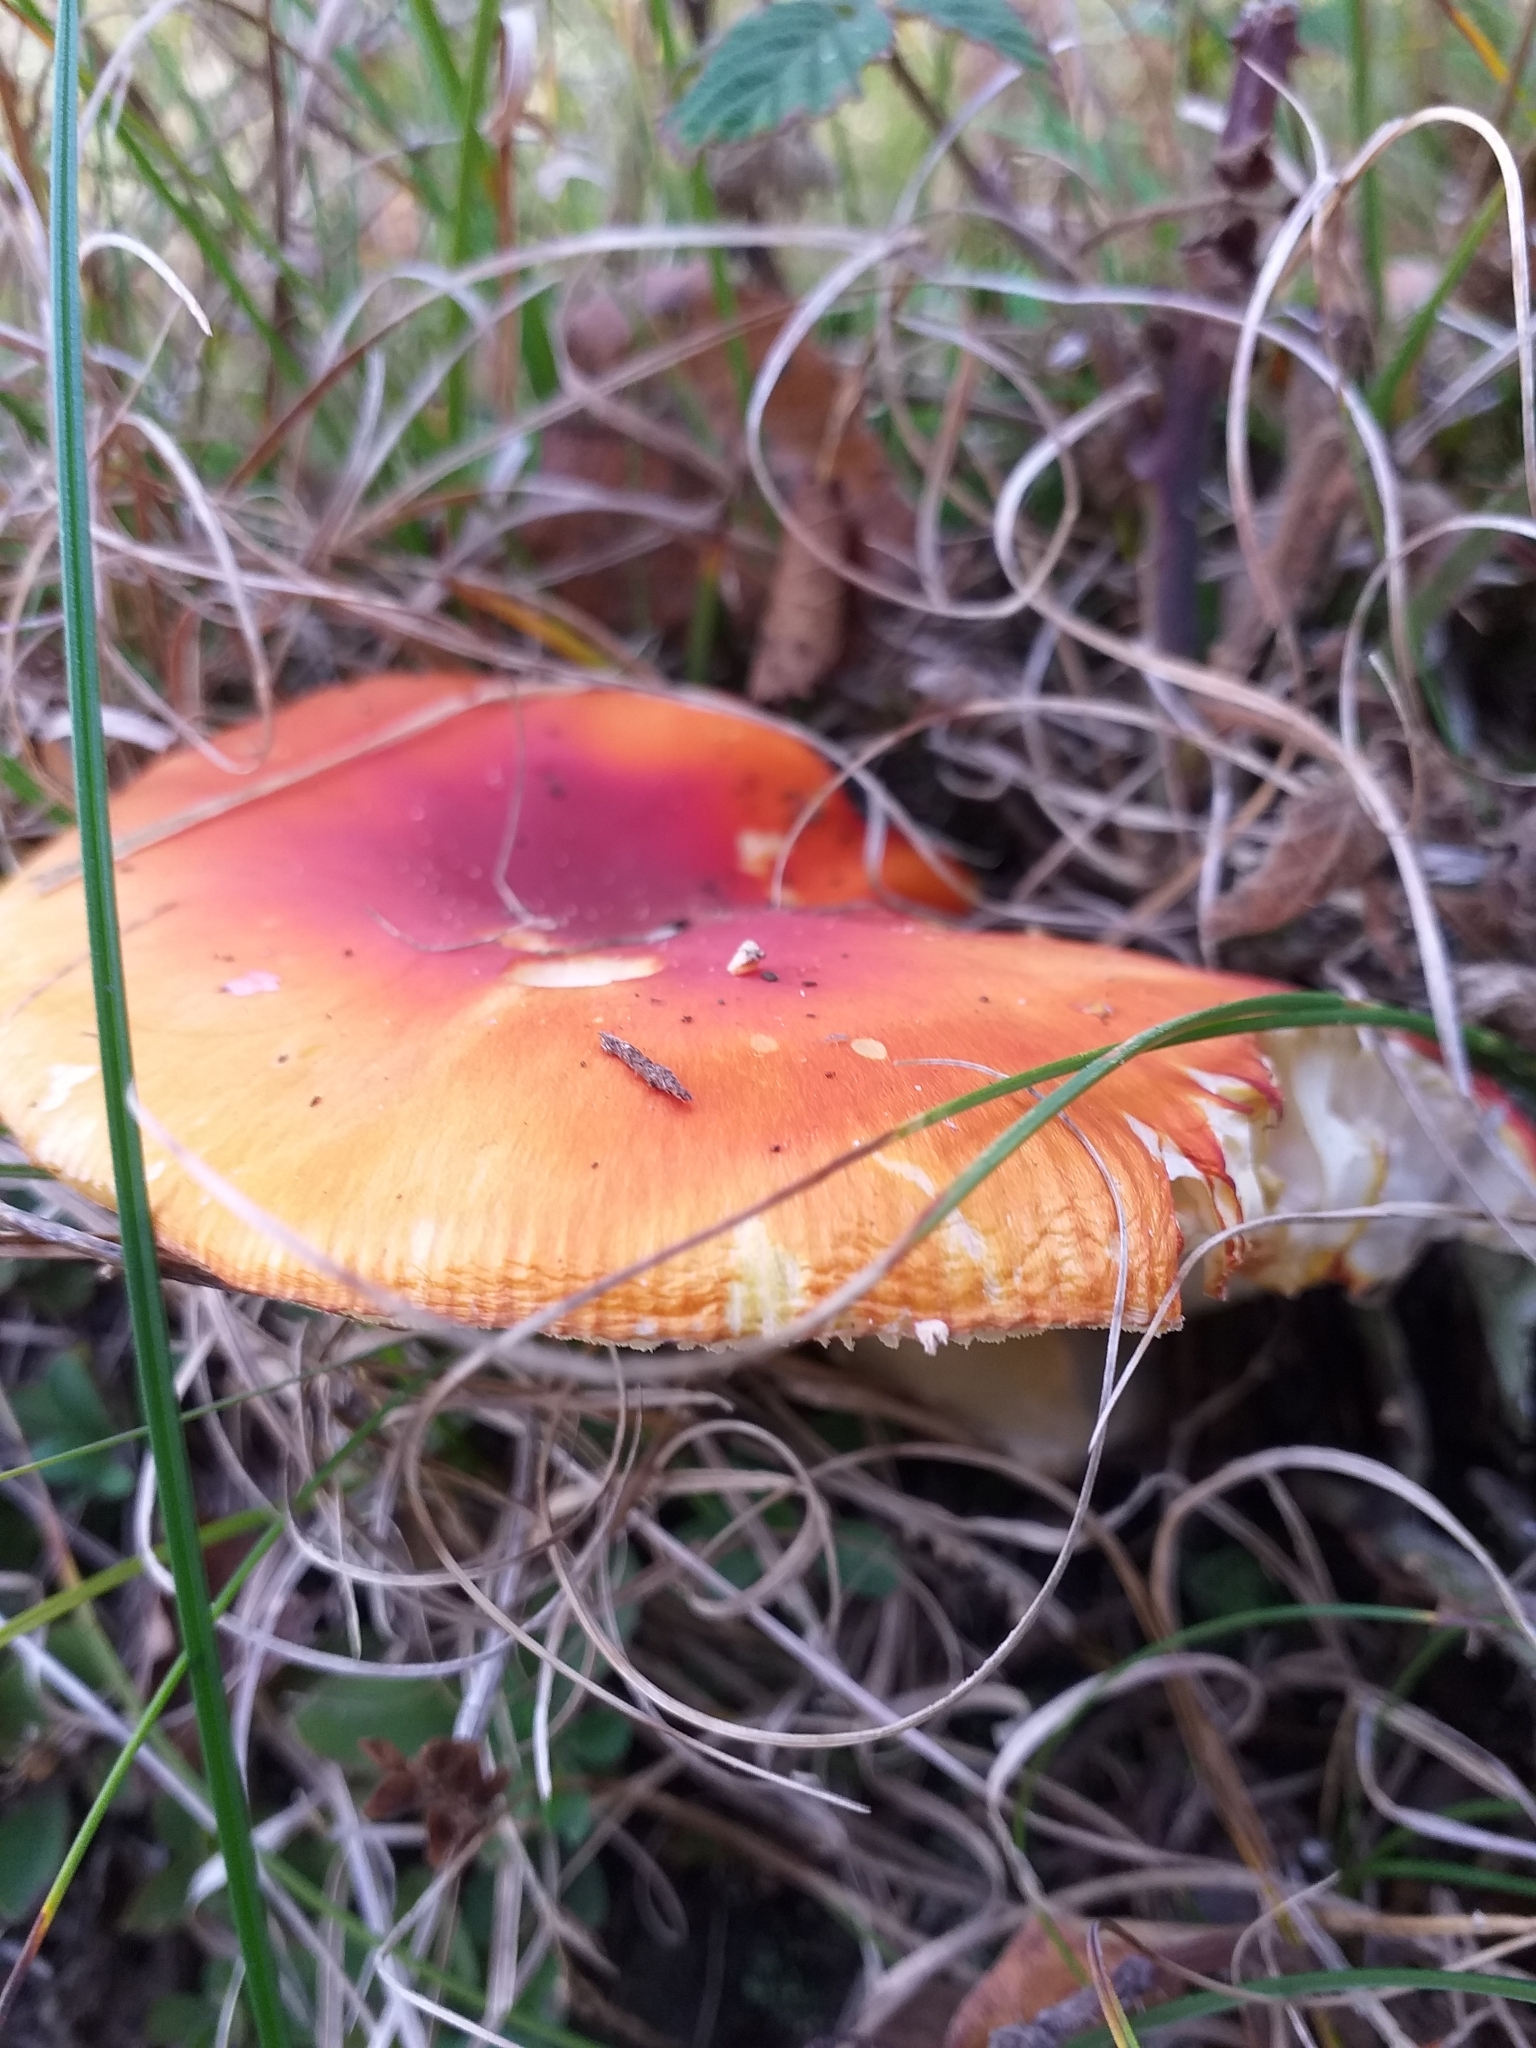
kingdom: Fungi
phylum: Basidiomycota
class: Agaricomycetes
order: Agaricales
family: Amanitaceae
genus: Amanita
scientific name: Amanita muscaria
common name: Fly agaric
